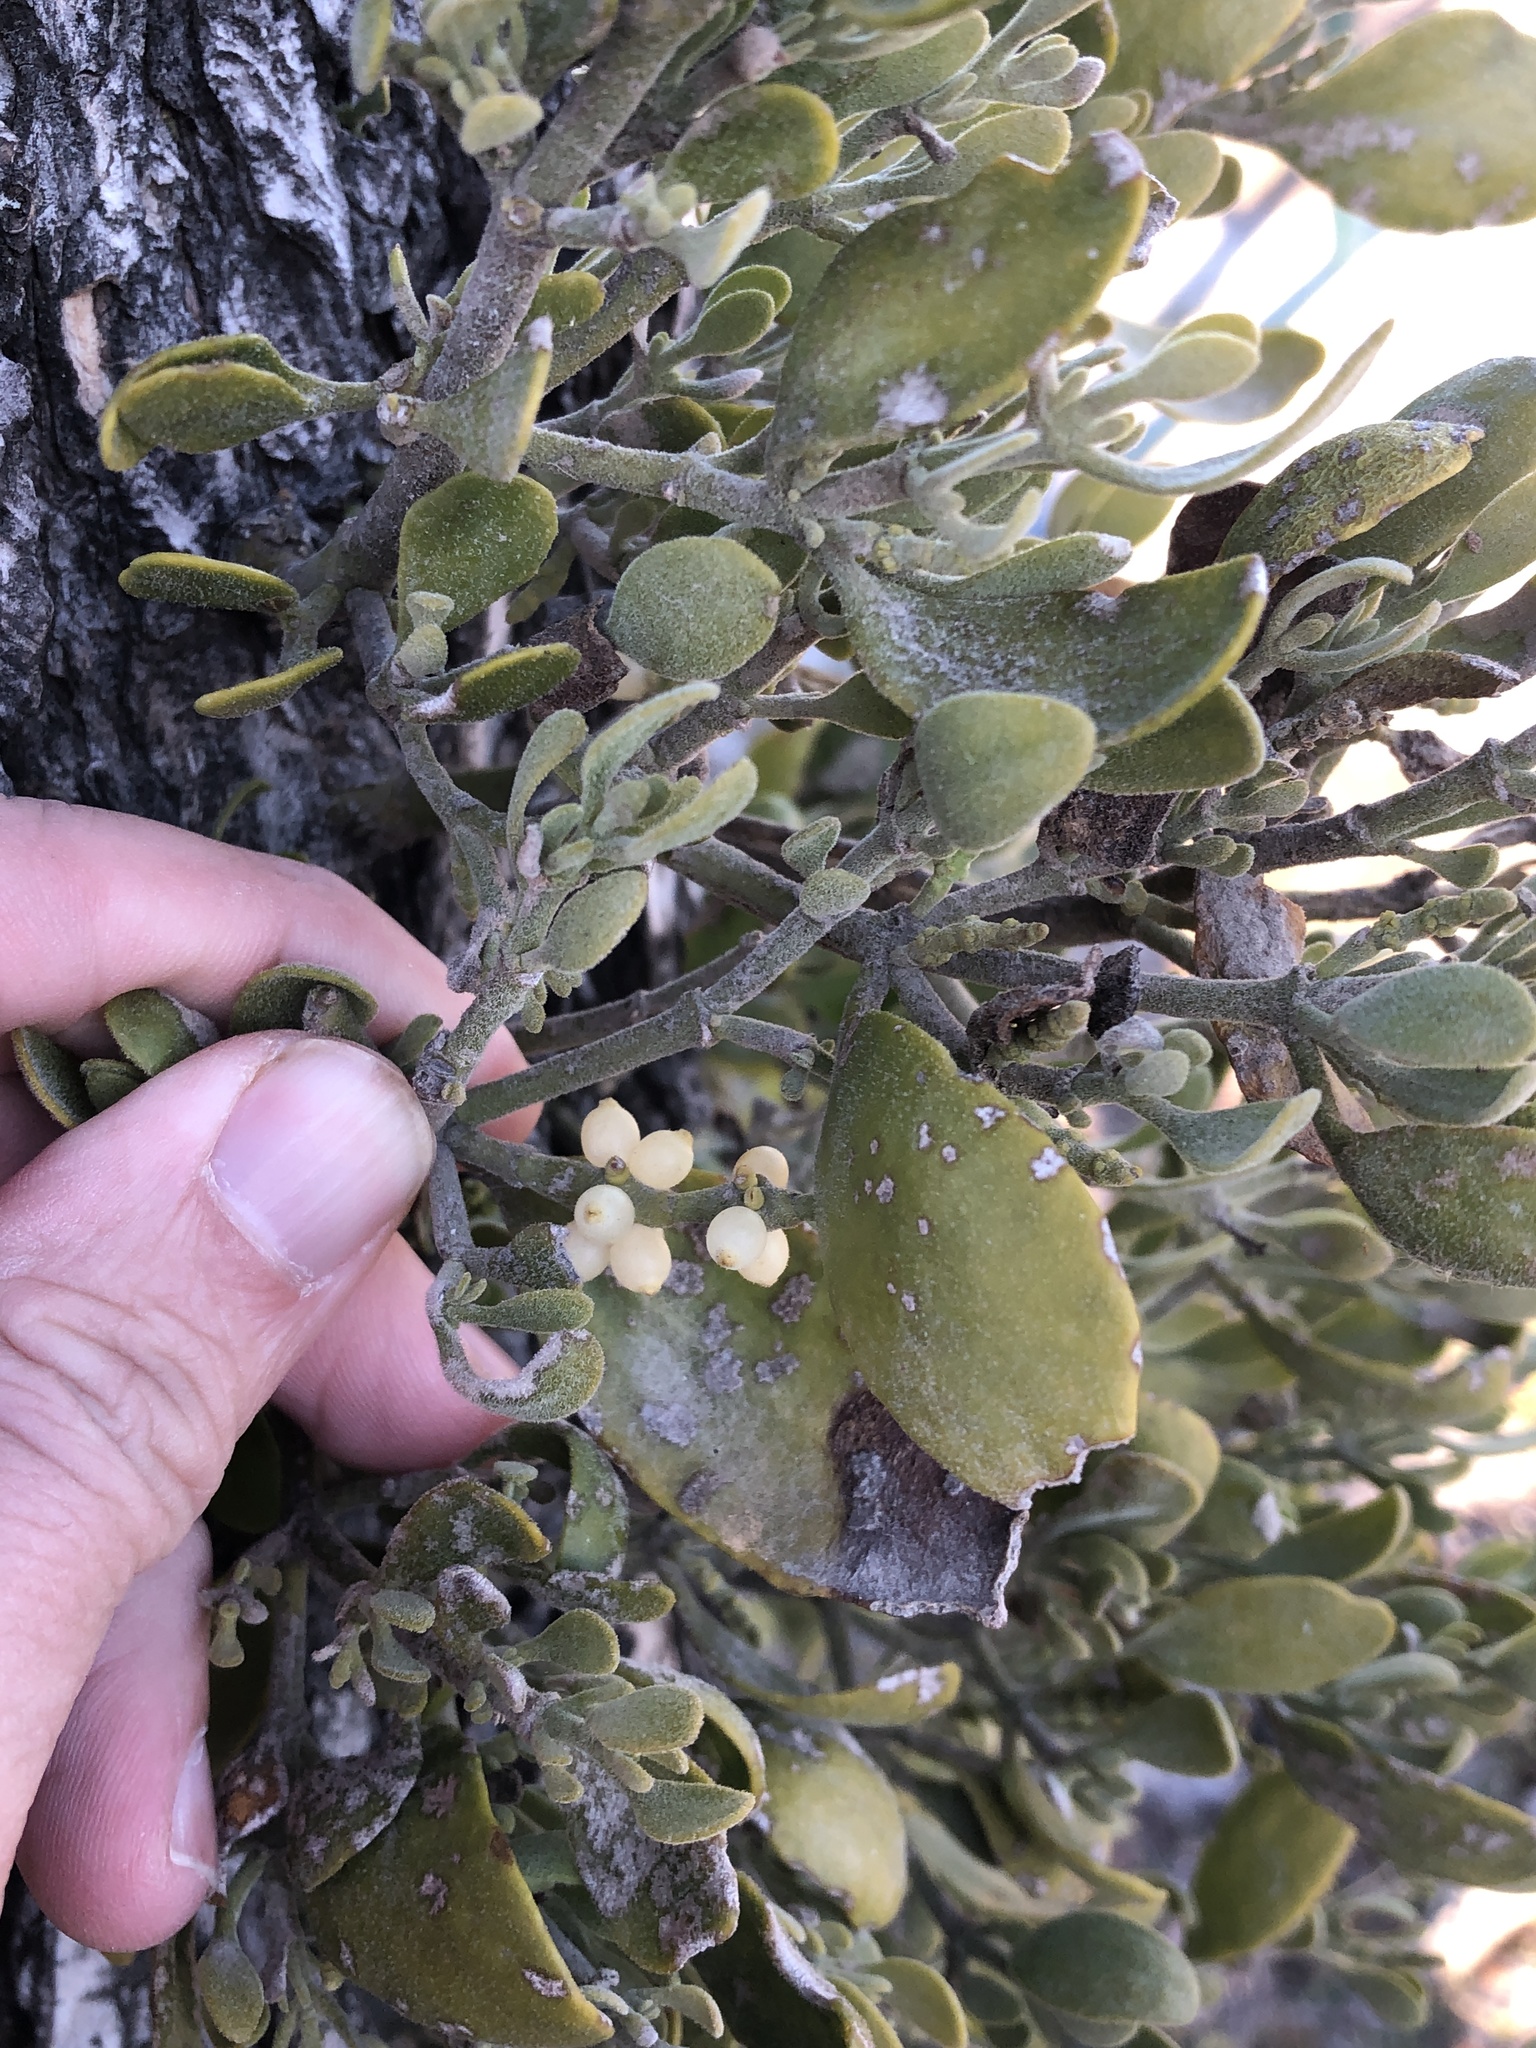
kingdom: Plantae
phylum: Tracheophyta
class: Magnoliopsida
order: Santalales
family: Viscaceae
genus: Phoradendron
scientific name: Phoradendron leucarpum
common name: Pacific mistletoe
